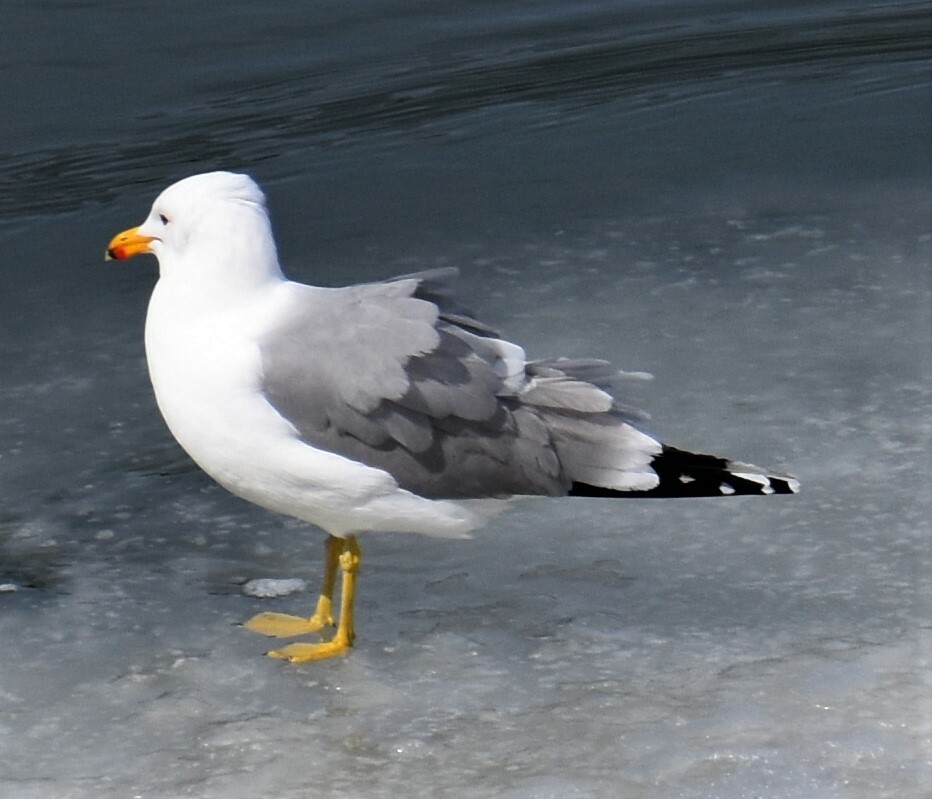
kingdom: Animalia
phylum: Chordata
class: Aves
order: Charadriiformes
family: Laridae
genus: Larus
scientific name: Larus californicus
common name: California gull
